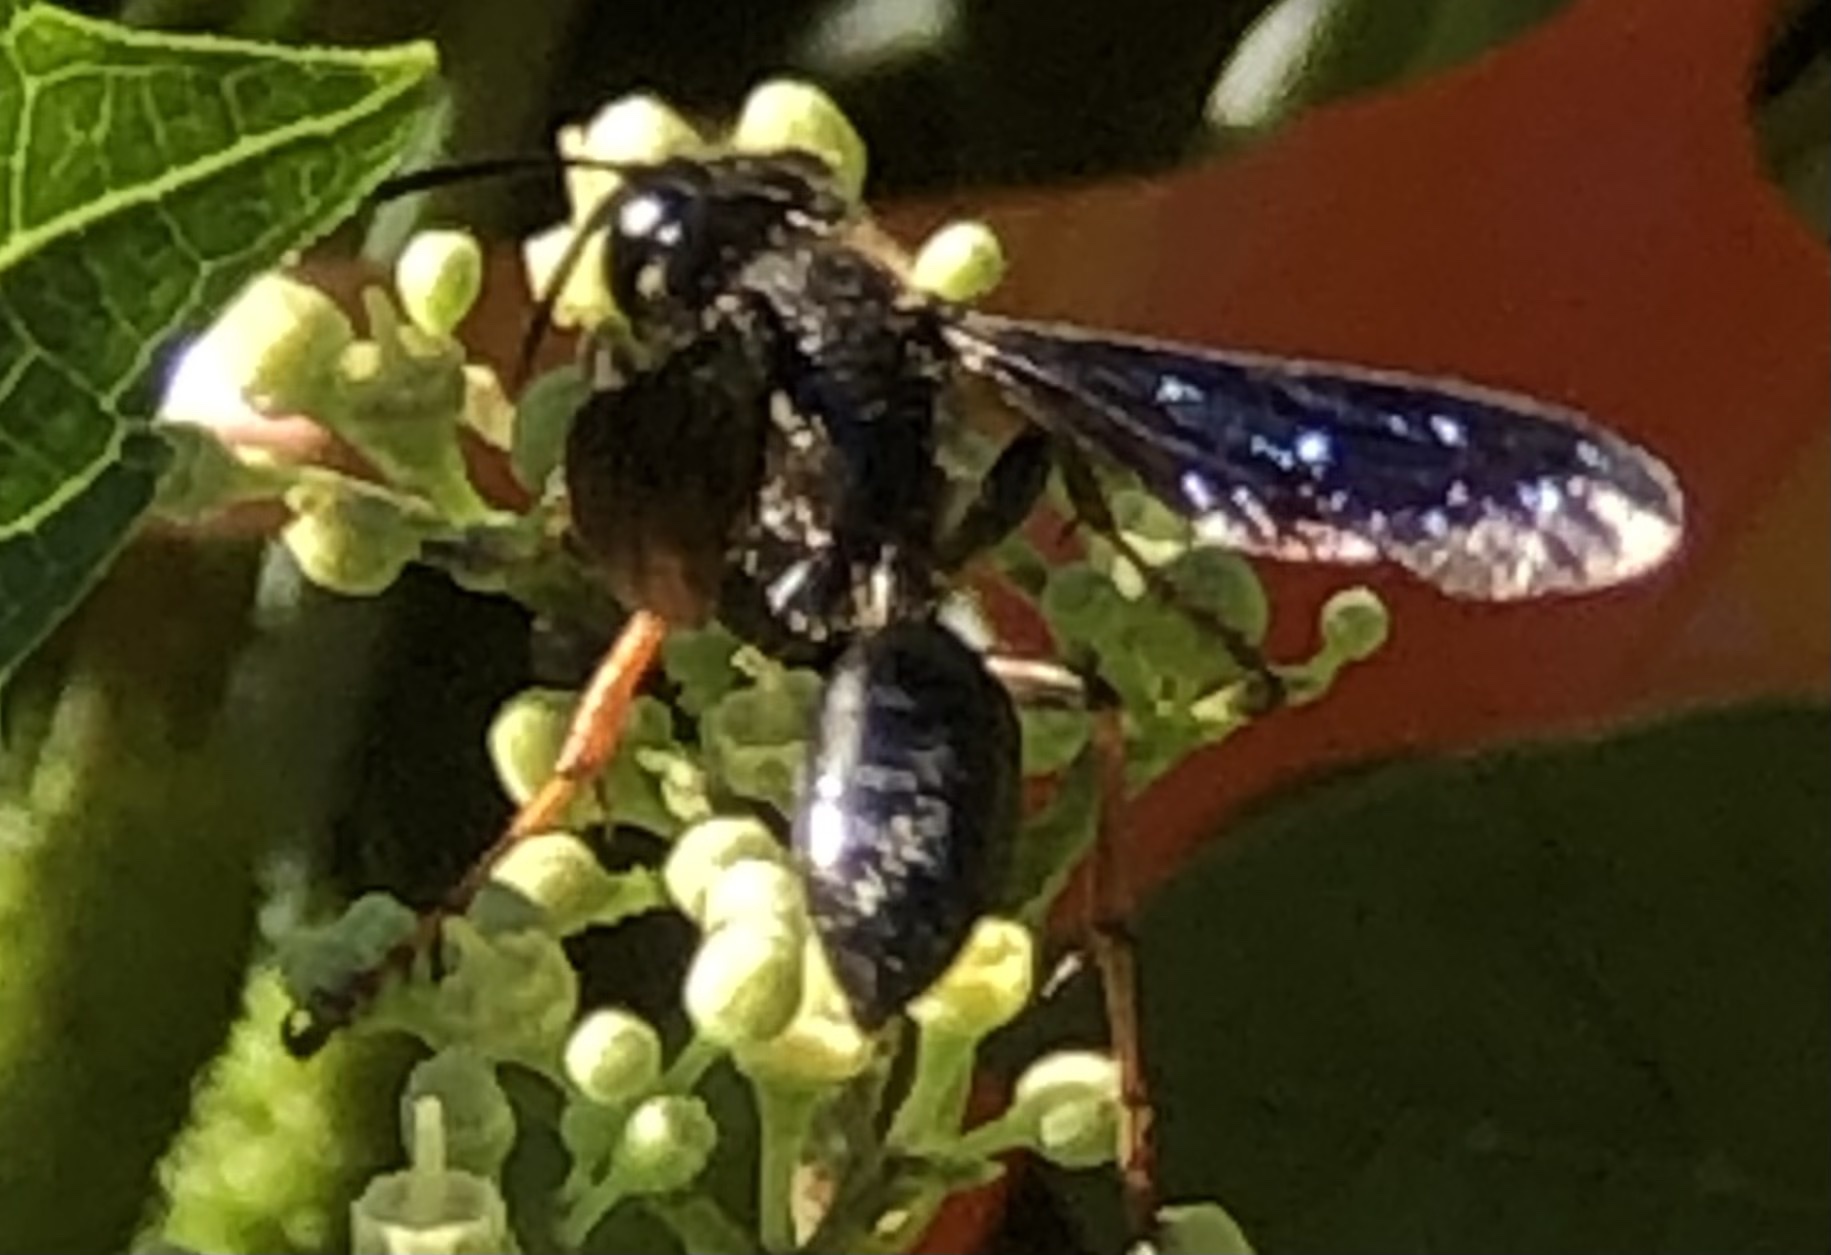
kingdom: Animalia
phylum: Arthropoda
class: Insecta
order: Hymenoptera
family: Sphecidae
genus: Isodontia
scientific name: Isodontia auripes
